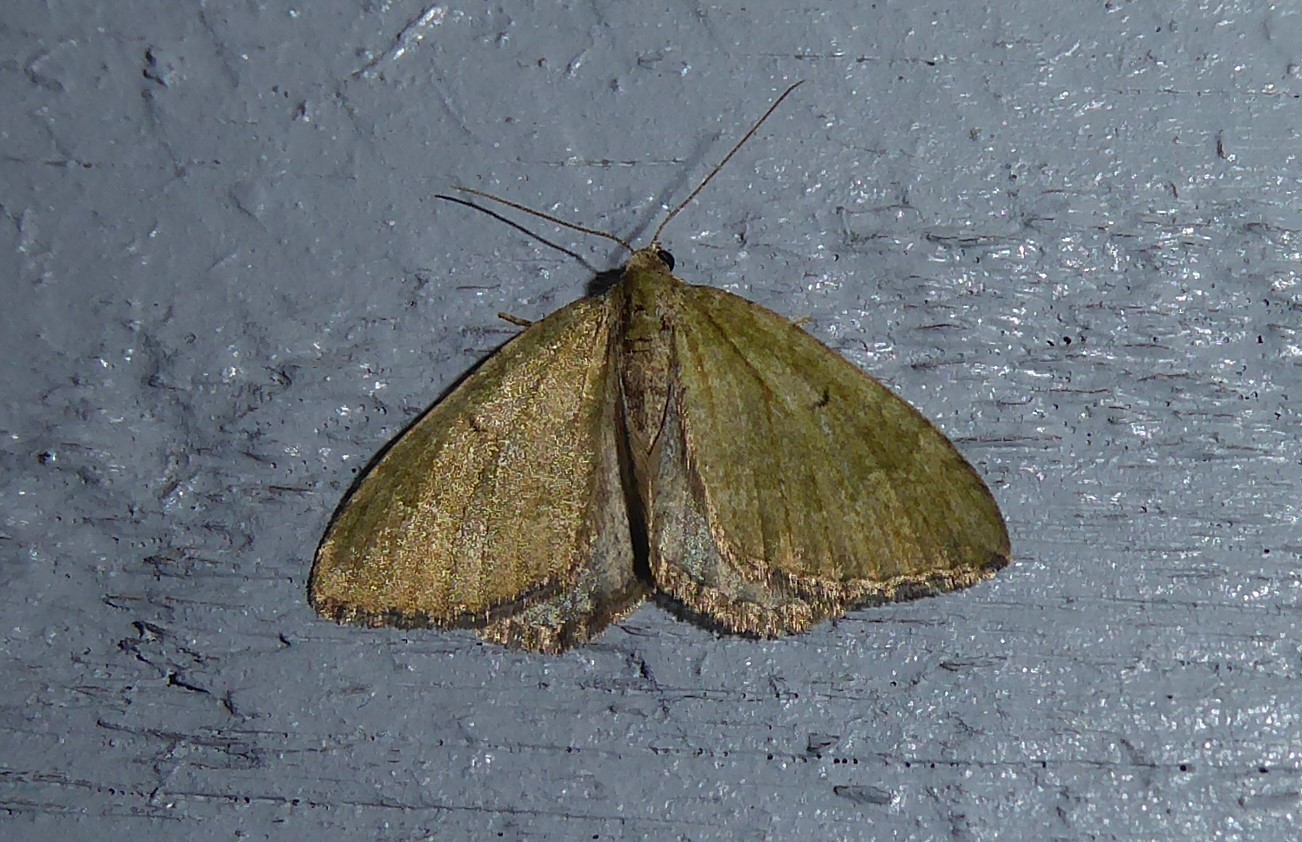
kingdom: Animalia
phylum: Arthropoda
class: Insecta
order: Lepidoptera
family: Geometridae
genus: Epyaxa
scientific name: Epyaxa rosearia
